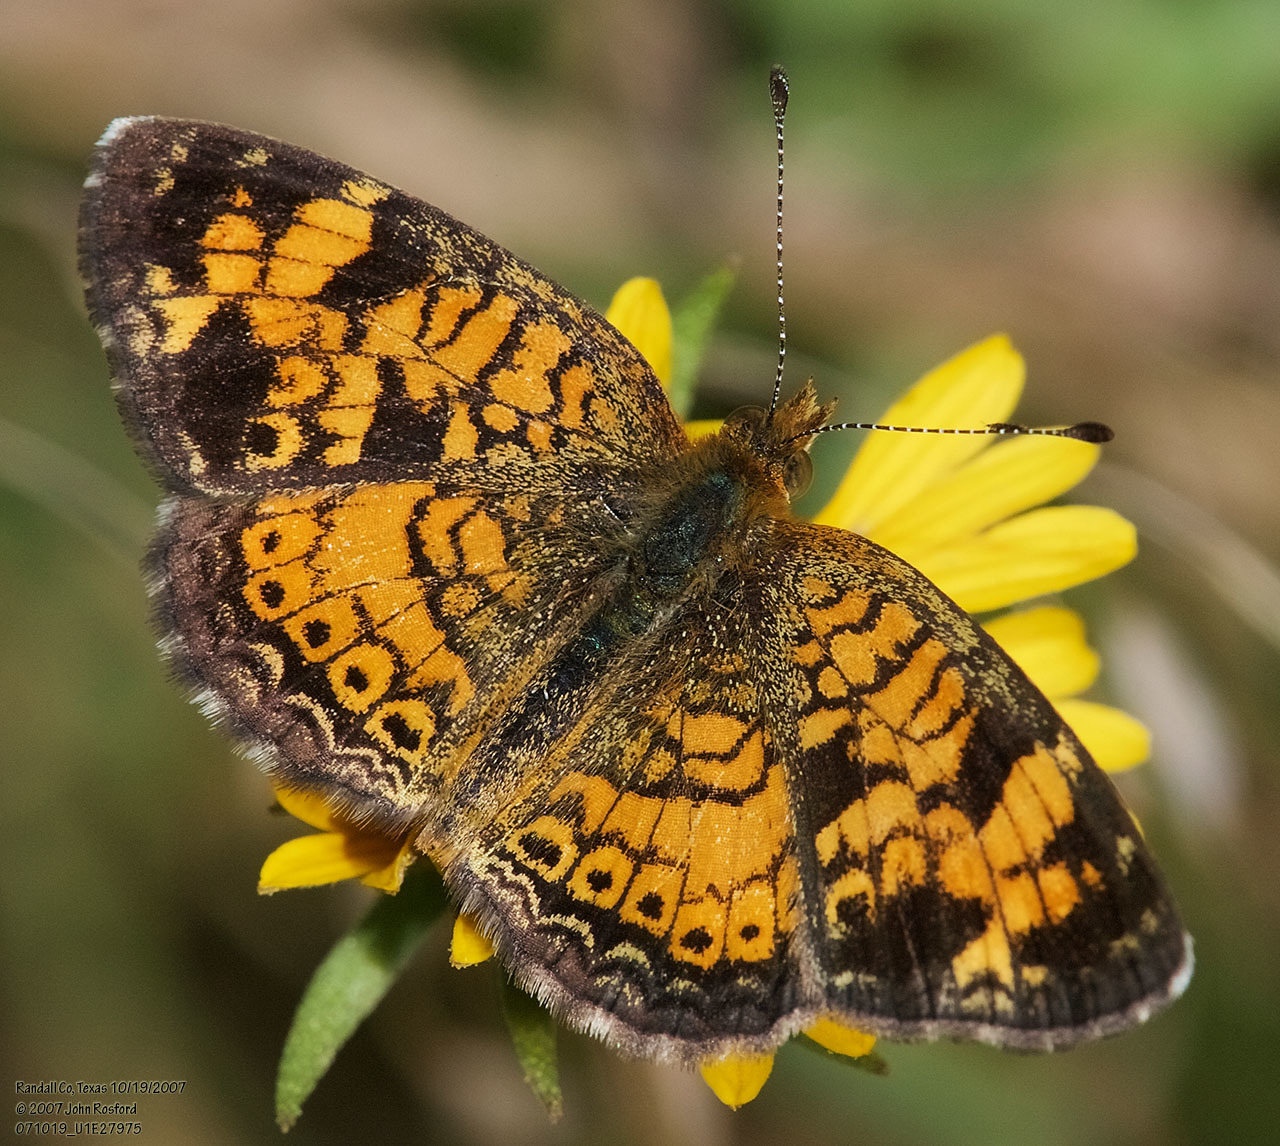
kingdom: Animalia
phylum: Arthropoda
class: Insecta
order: Lepidoptera
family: Nymphalidae
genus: Phyciodes
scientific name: Phyciodes tharos
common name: Pearl crescent
